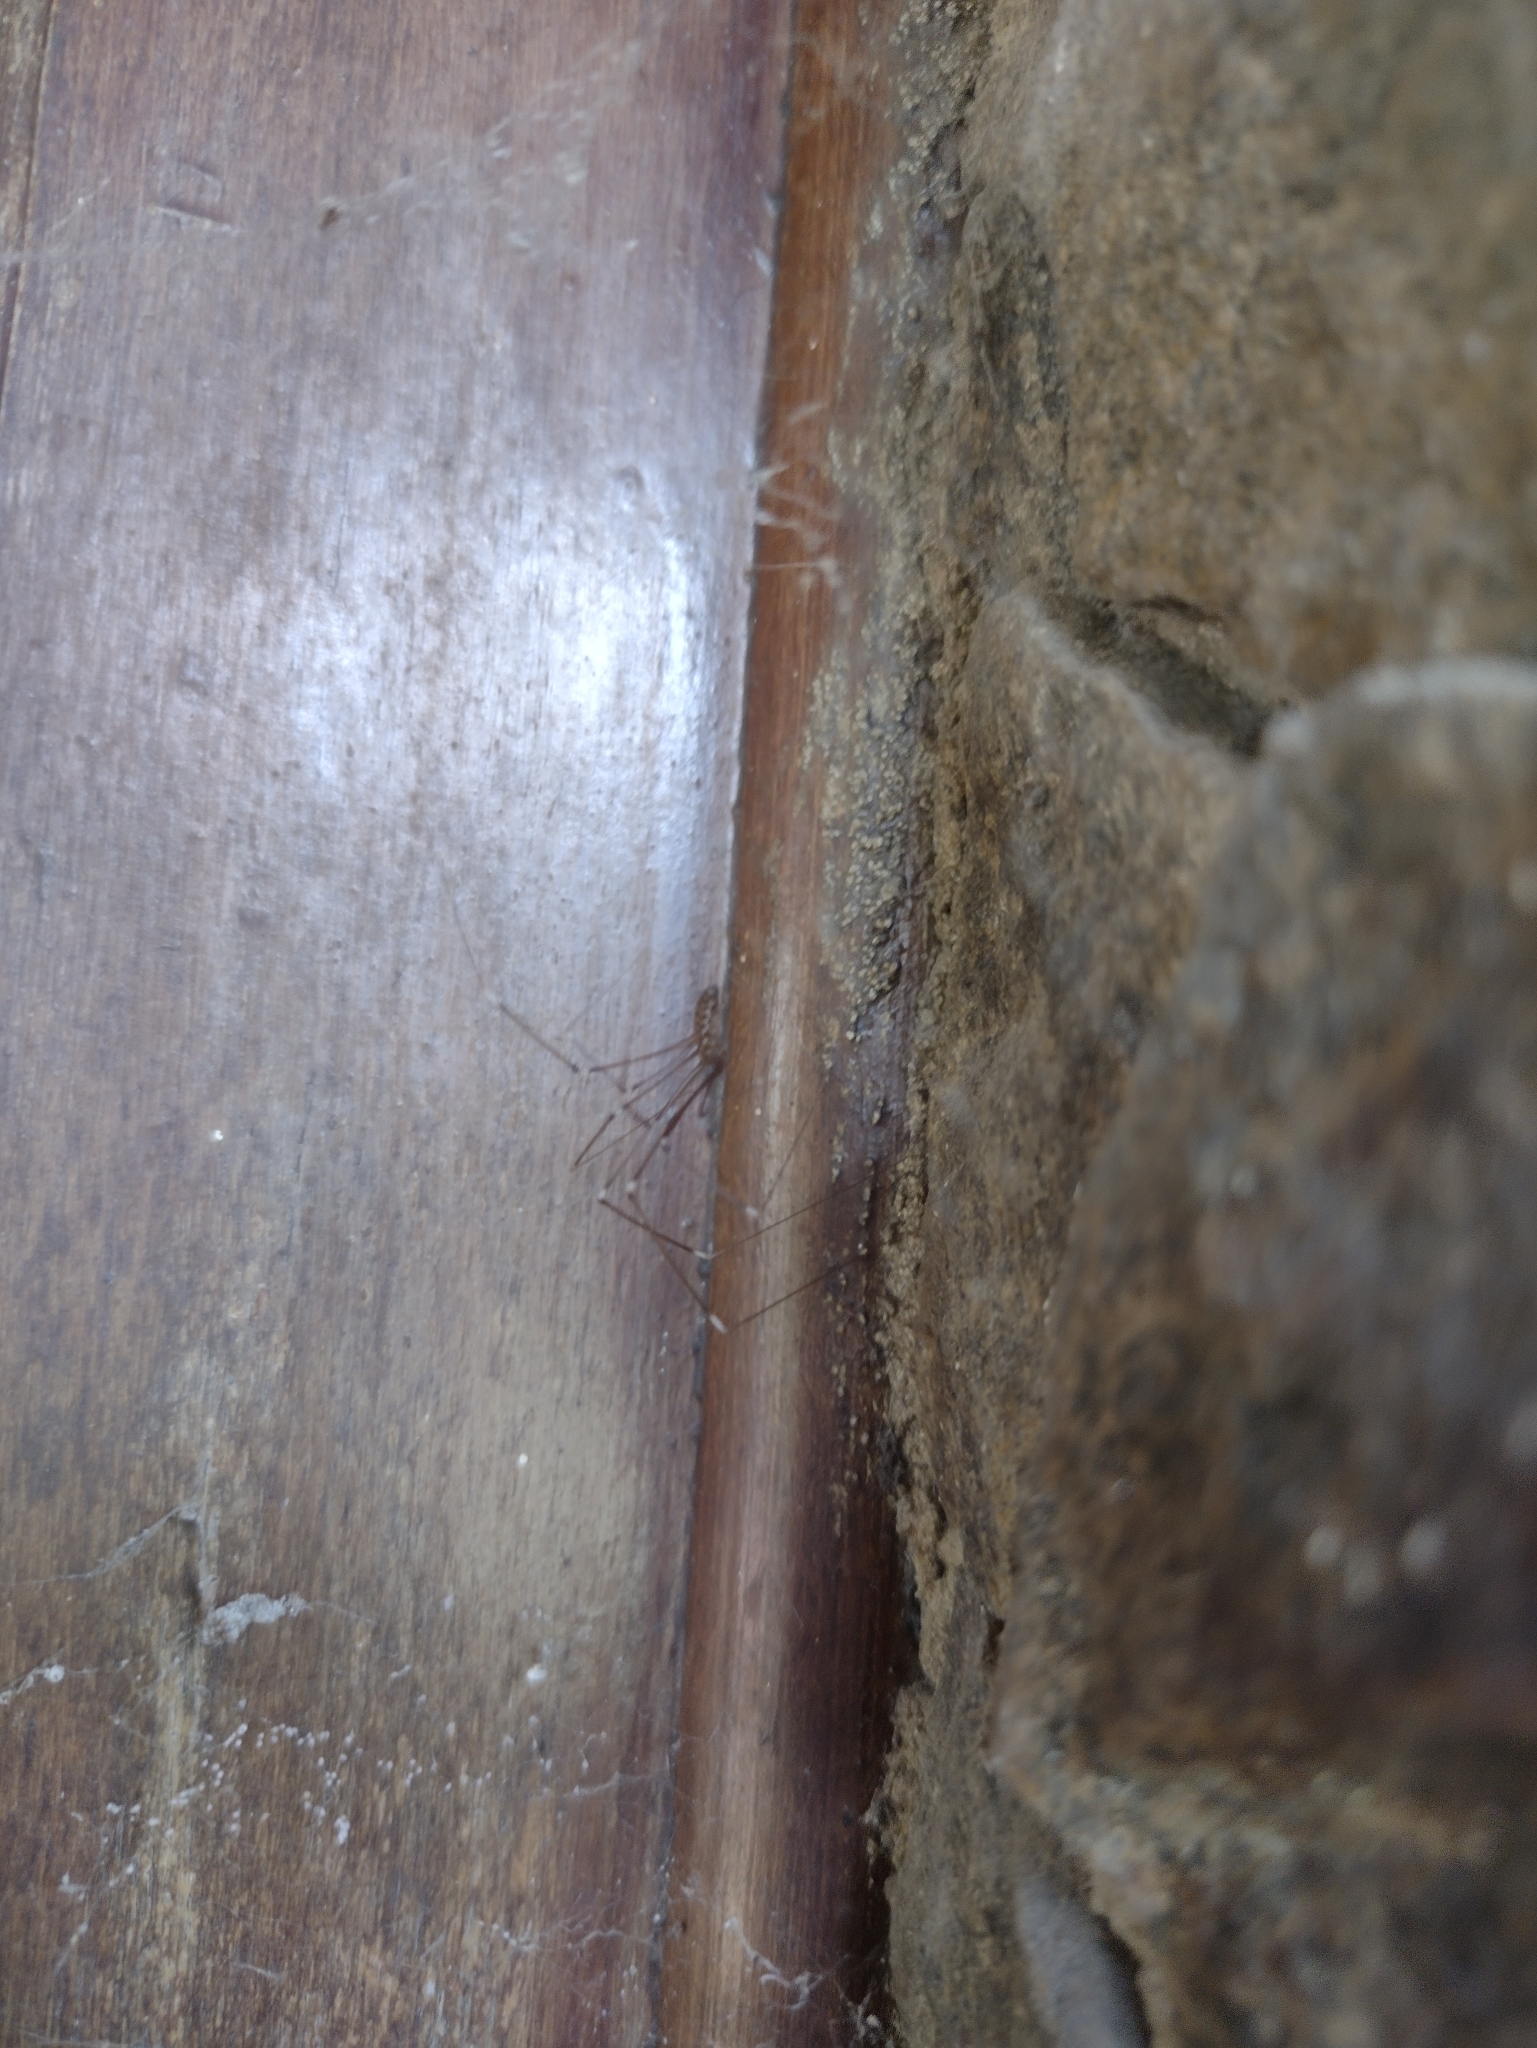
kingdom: Animalia
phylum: Arthropoda
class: Arachnida
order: Araneae
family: Pholcidae
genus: Smeringopus
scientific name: Smeringopus pallidus
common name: Cellar spider
